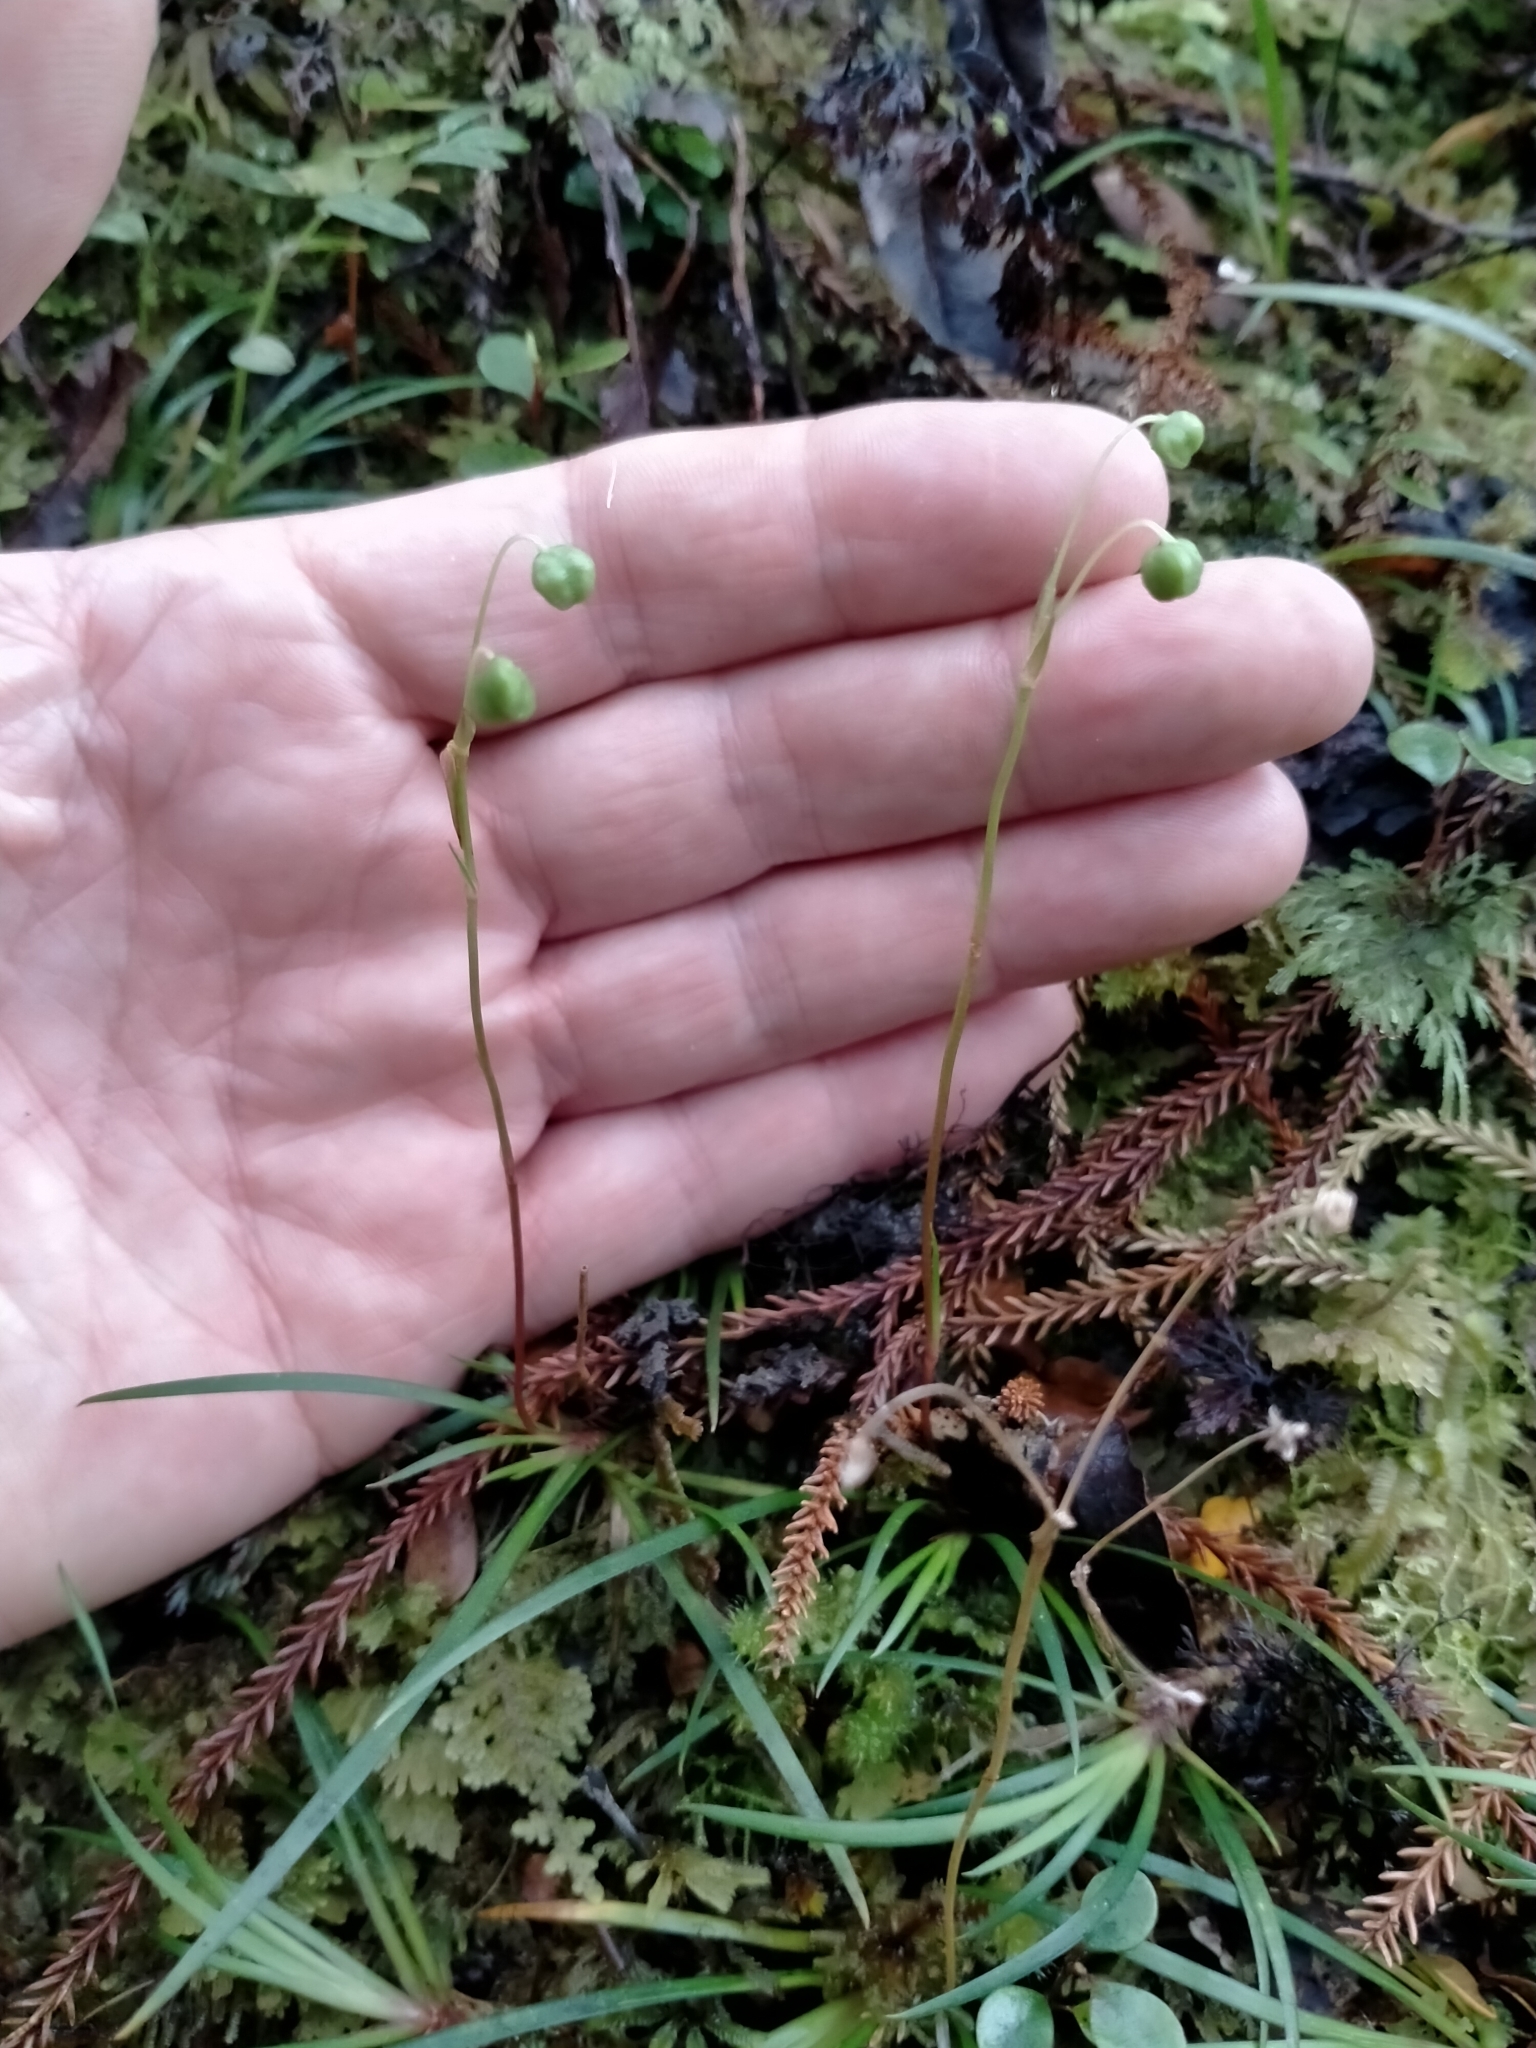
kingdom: Plantae
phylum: Tracheophyta
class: Liliopsida
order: Asparagales
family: Iridaceae
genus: Libertia
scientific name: Libertia micrantha
